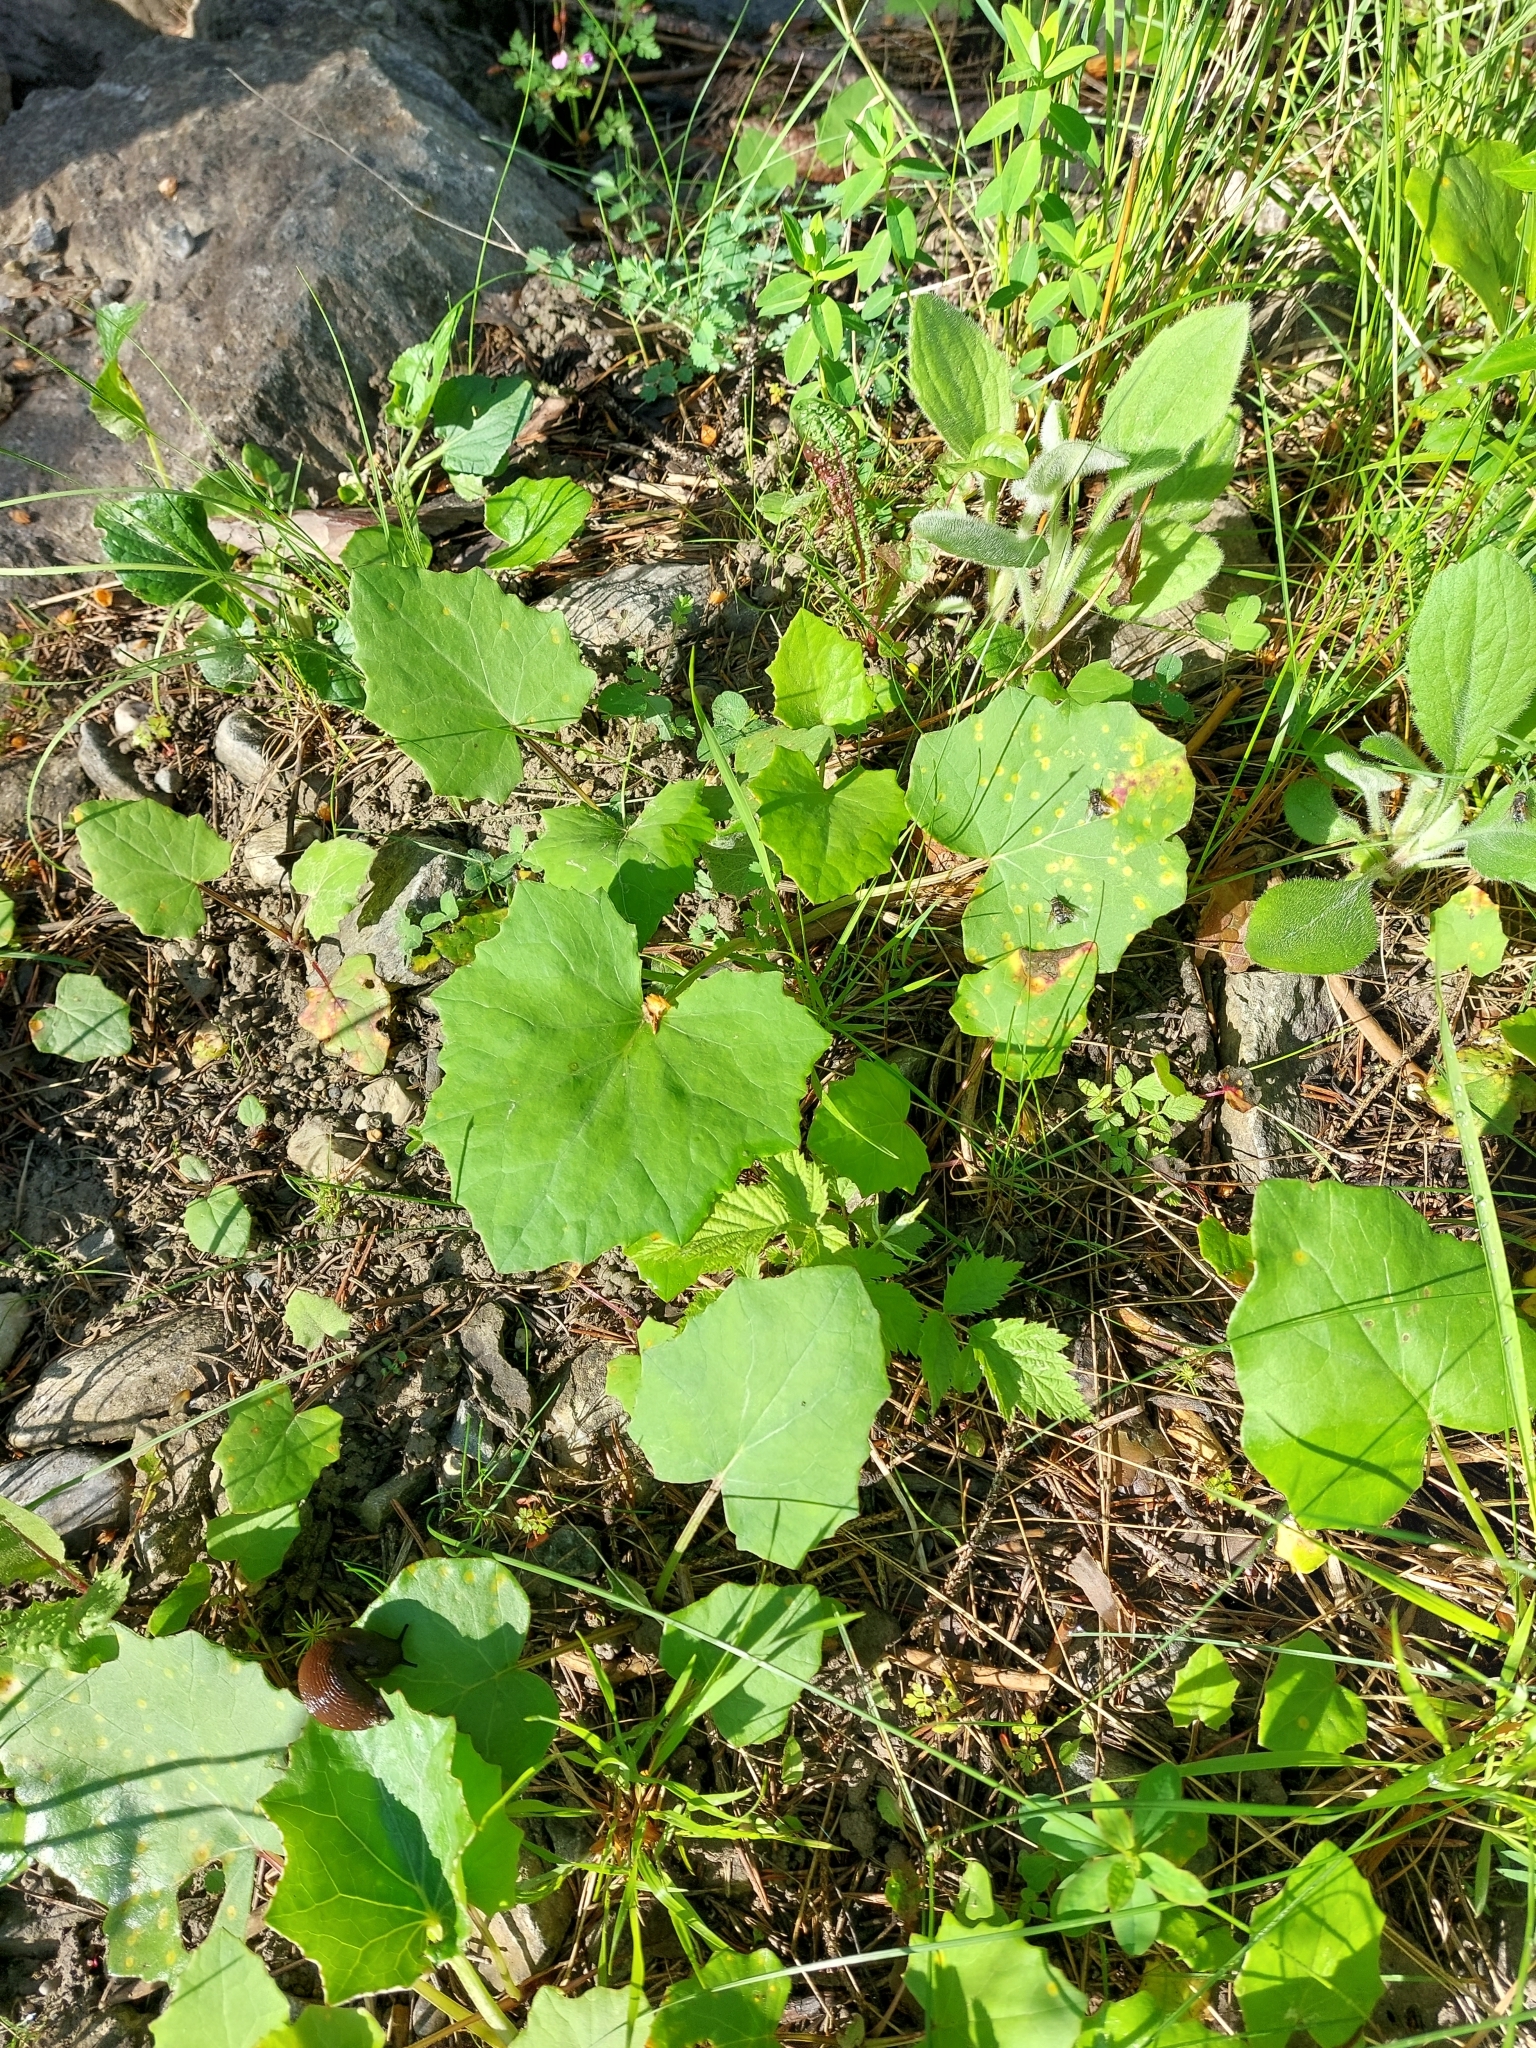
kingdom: Plantae
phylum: Tracheophyta
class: Magnoliopsida
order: Asterales
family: Asteraceae
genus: Tussilago
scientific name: Tussilago farfara
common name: Coltsfoot
